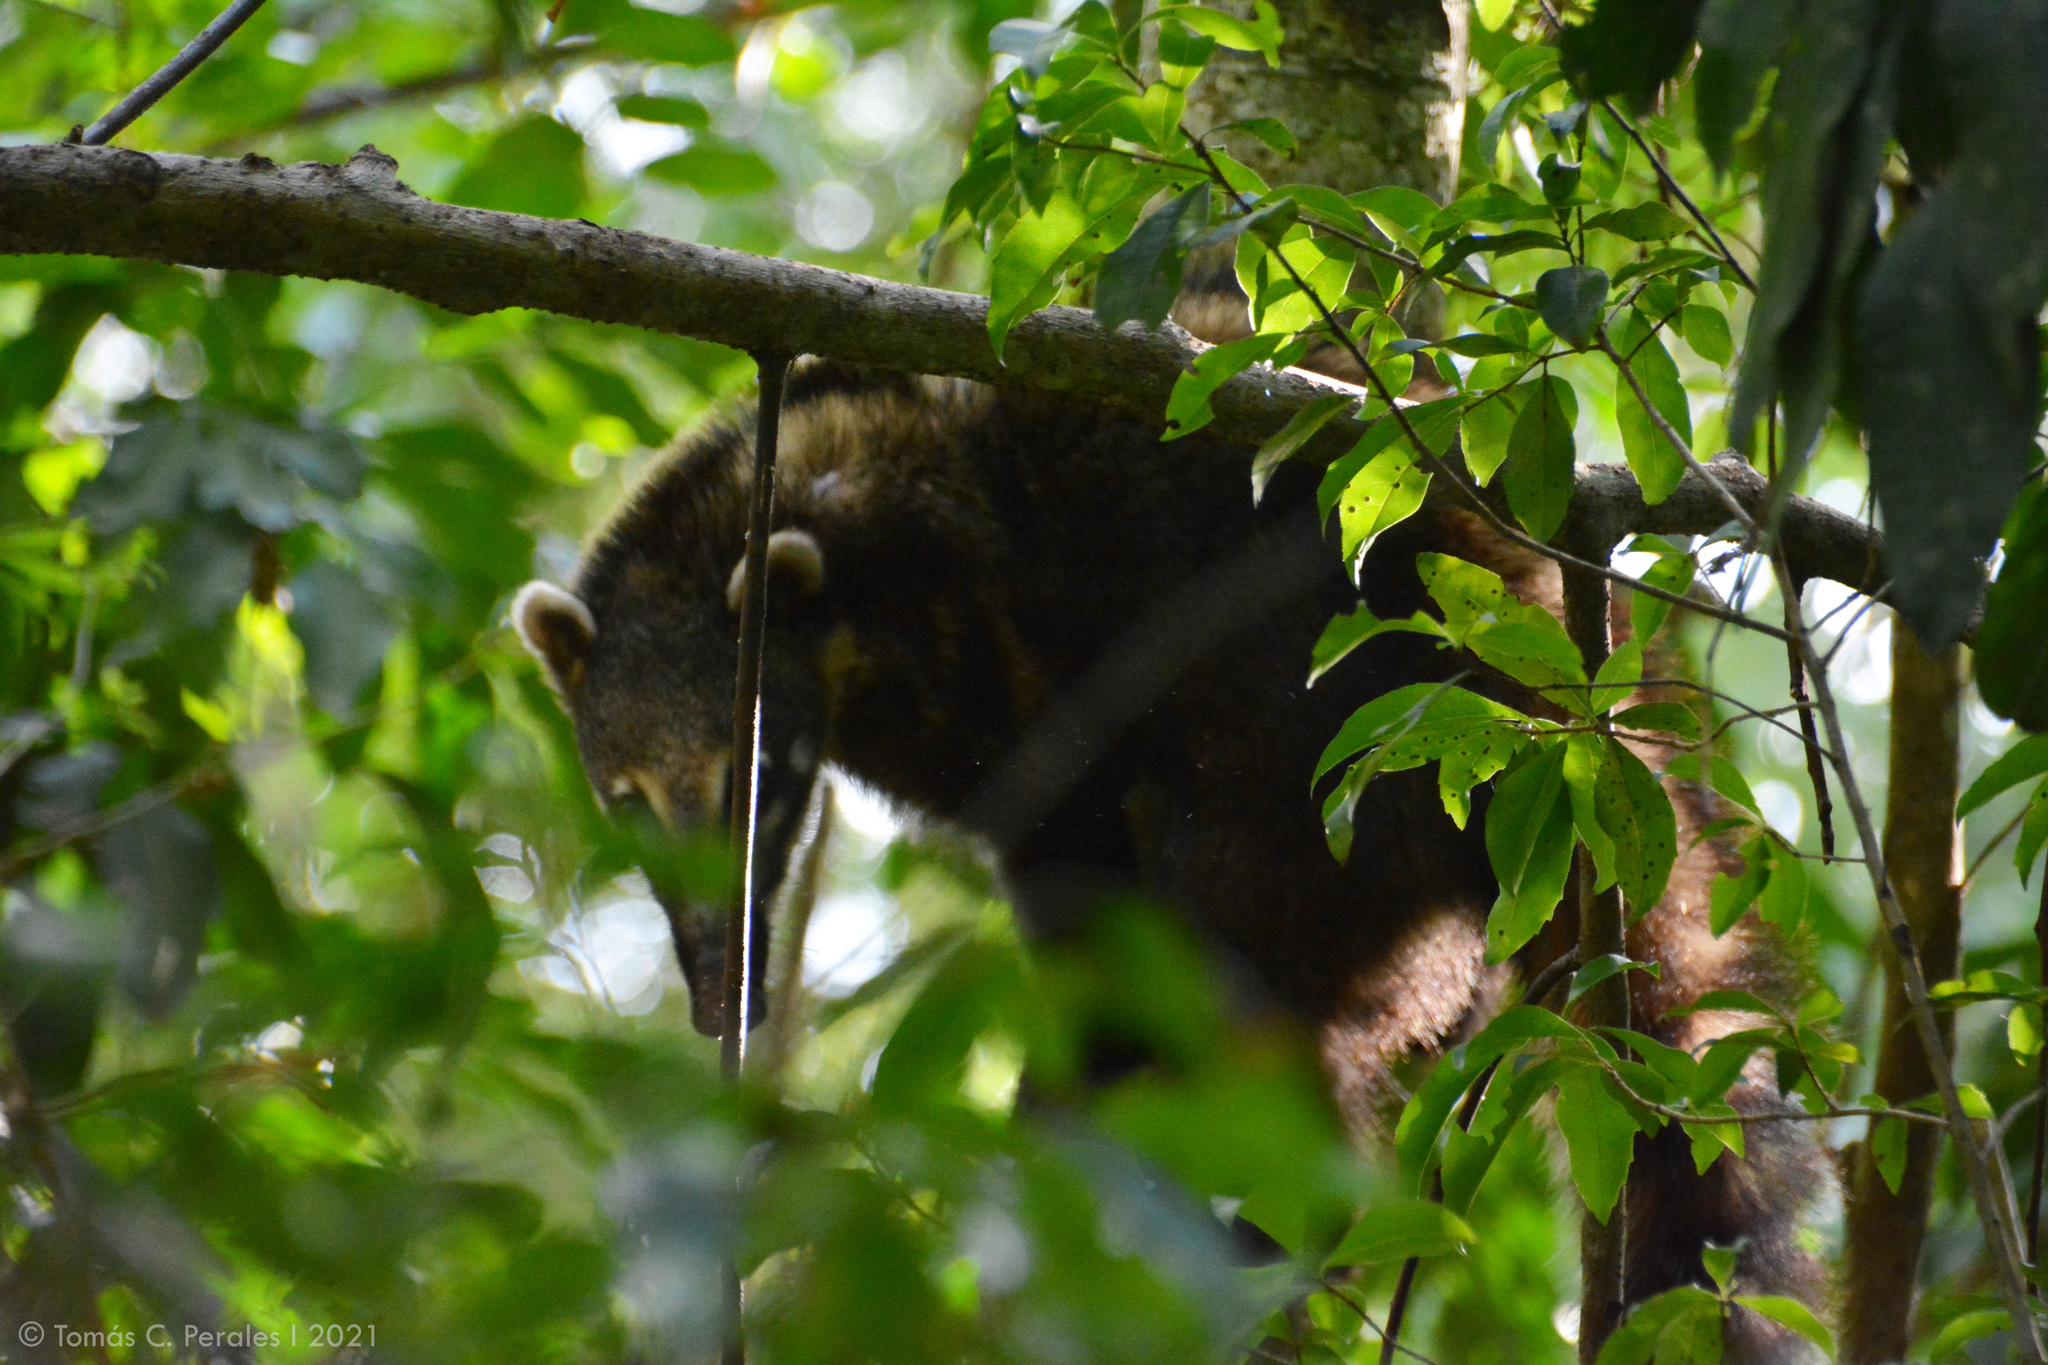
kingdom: Animalia
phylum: Chordata
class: Mammalia
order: Carnivora
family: Procyonidae
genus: Nasua
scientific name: Nasua nasua
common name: South american coati
